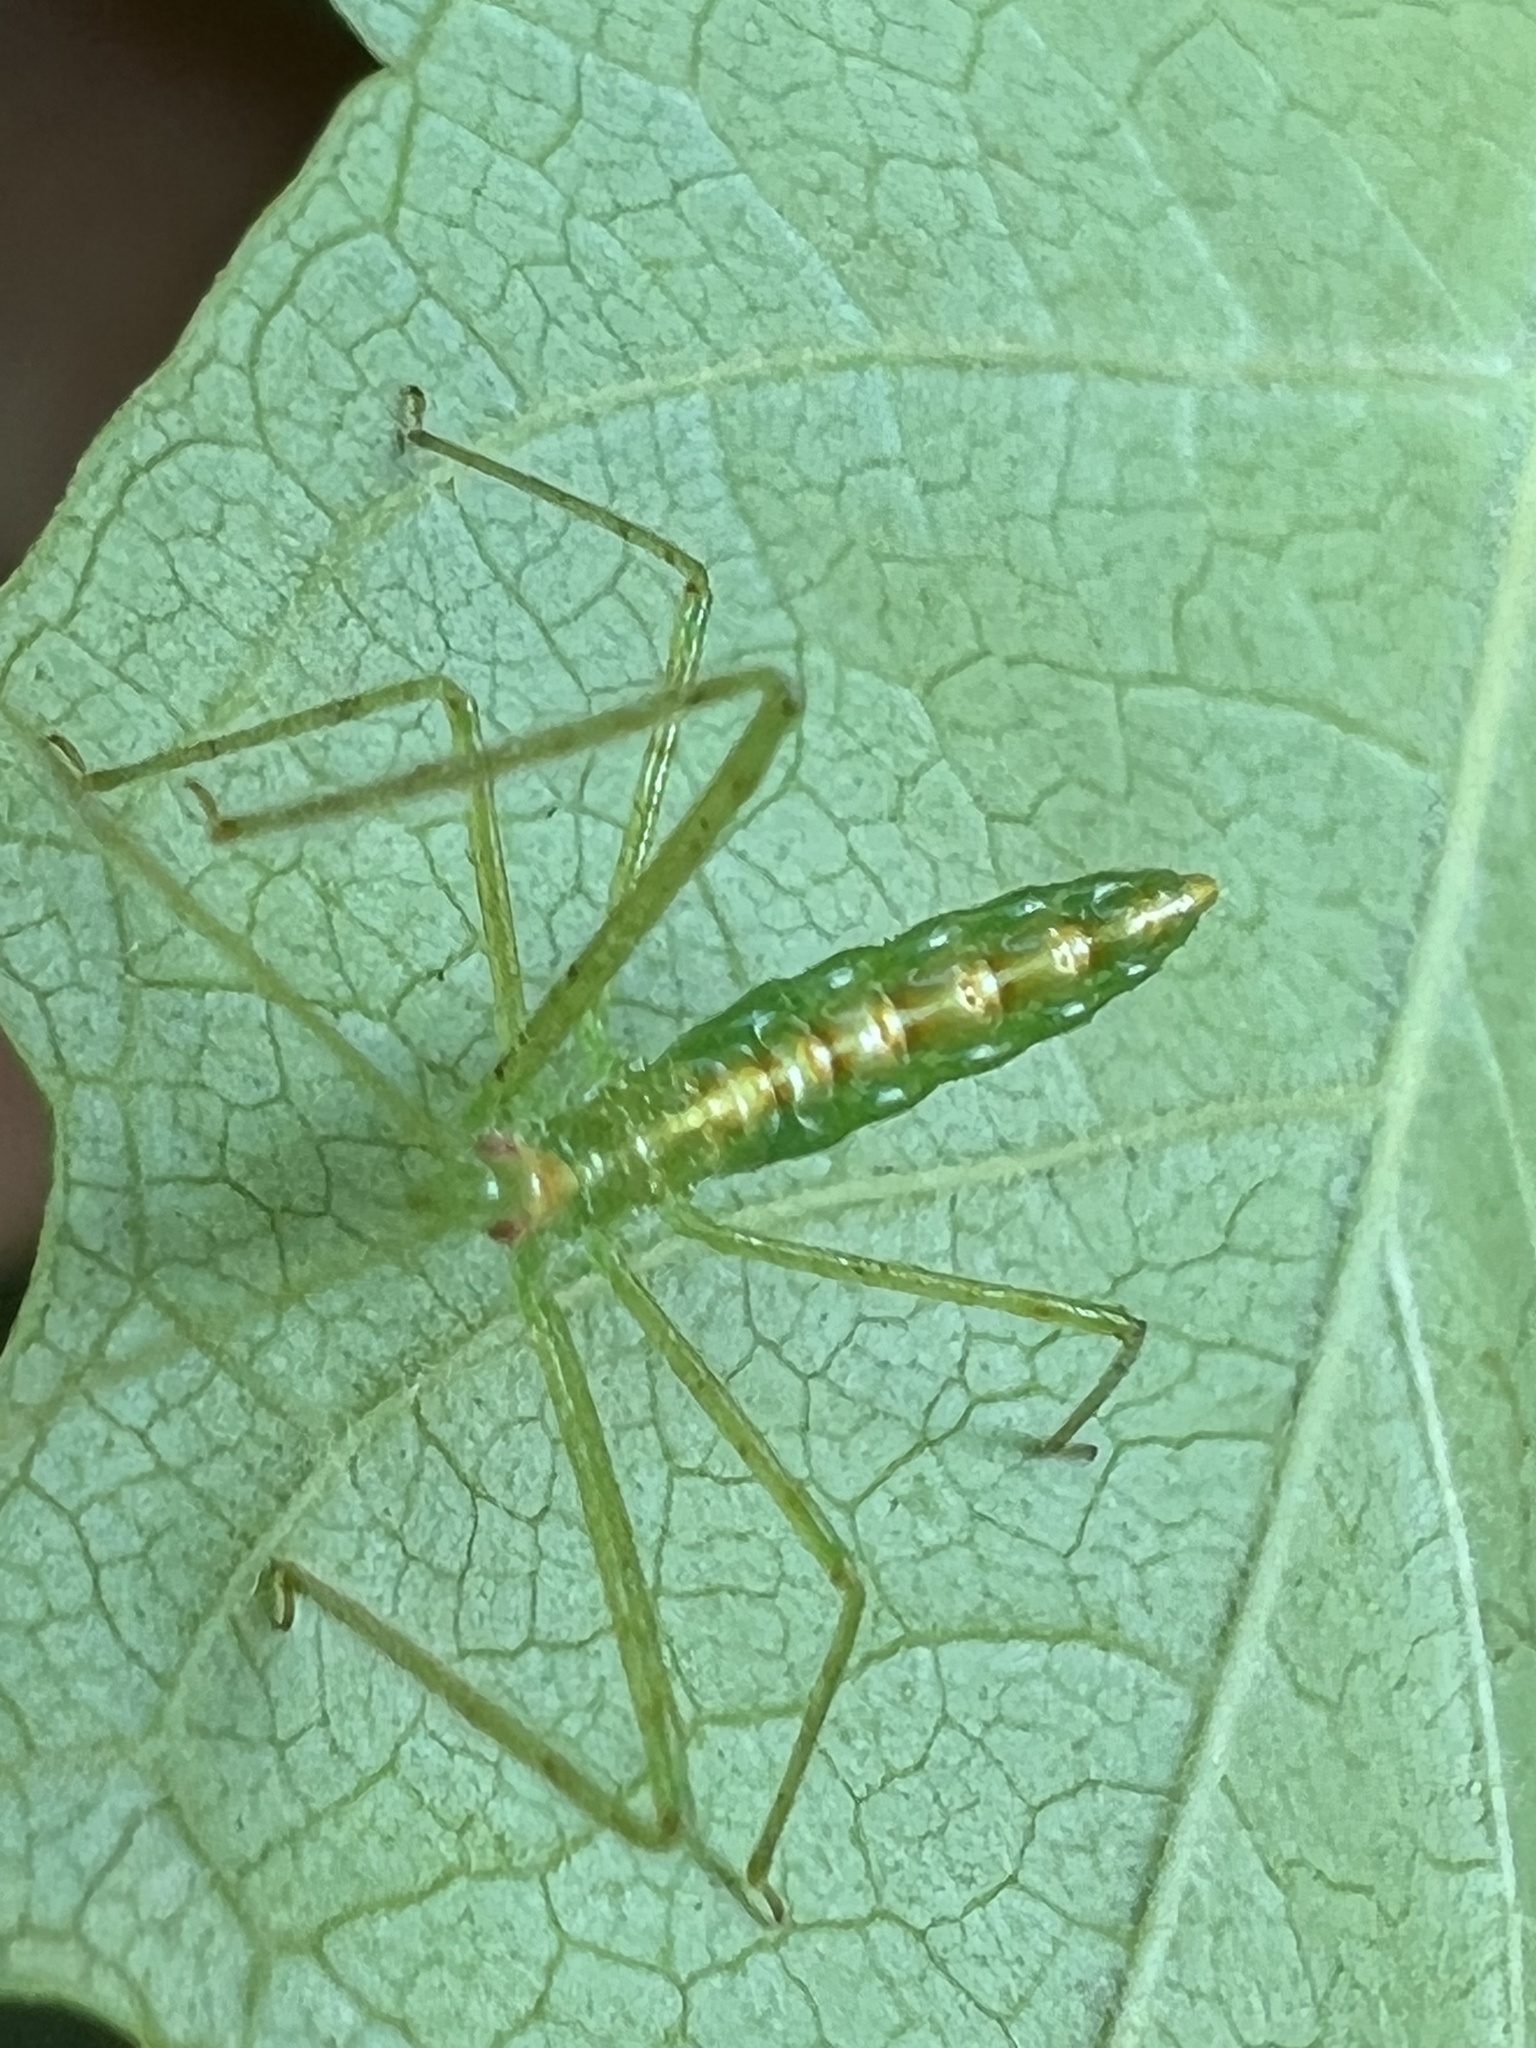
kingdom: Animalia
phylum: Arthropoda
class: Insecta
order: Hemiptera
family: Reduviidae
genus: Zelus
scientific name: Zelus luridus
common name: Pale green assassin bug
